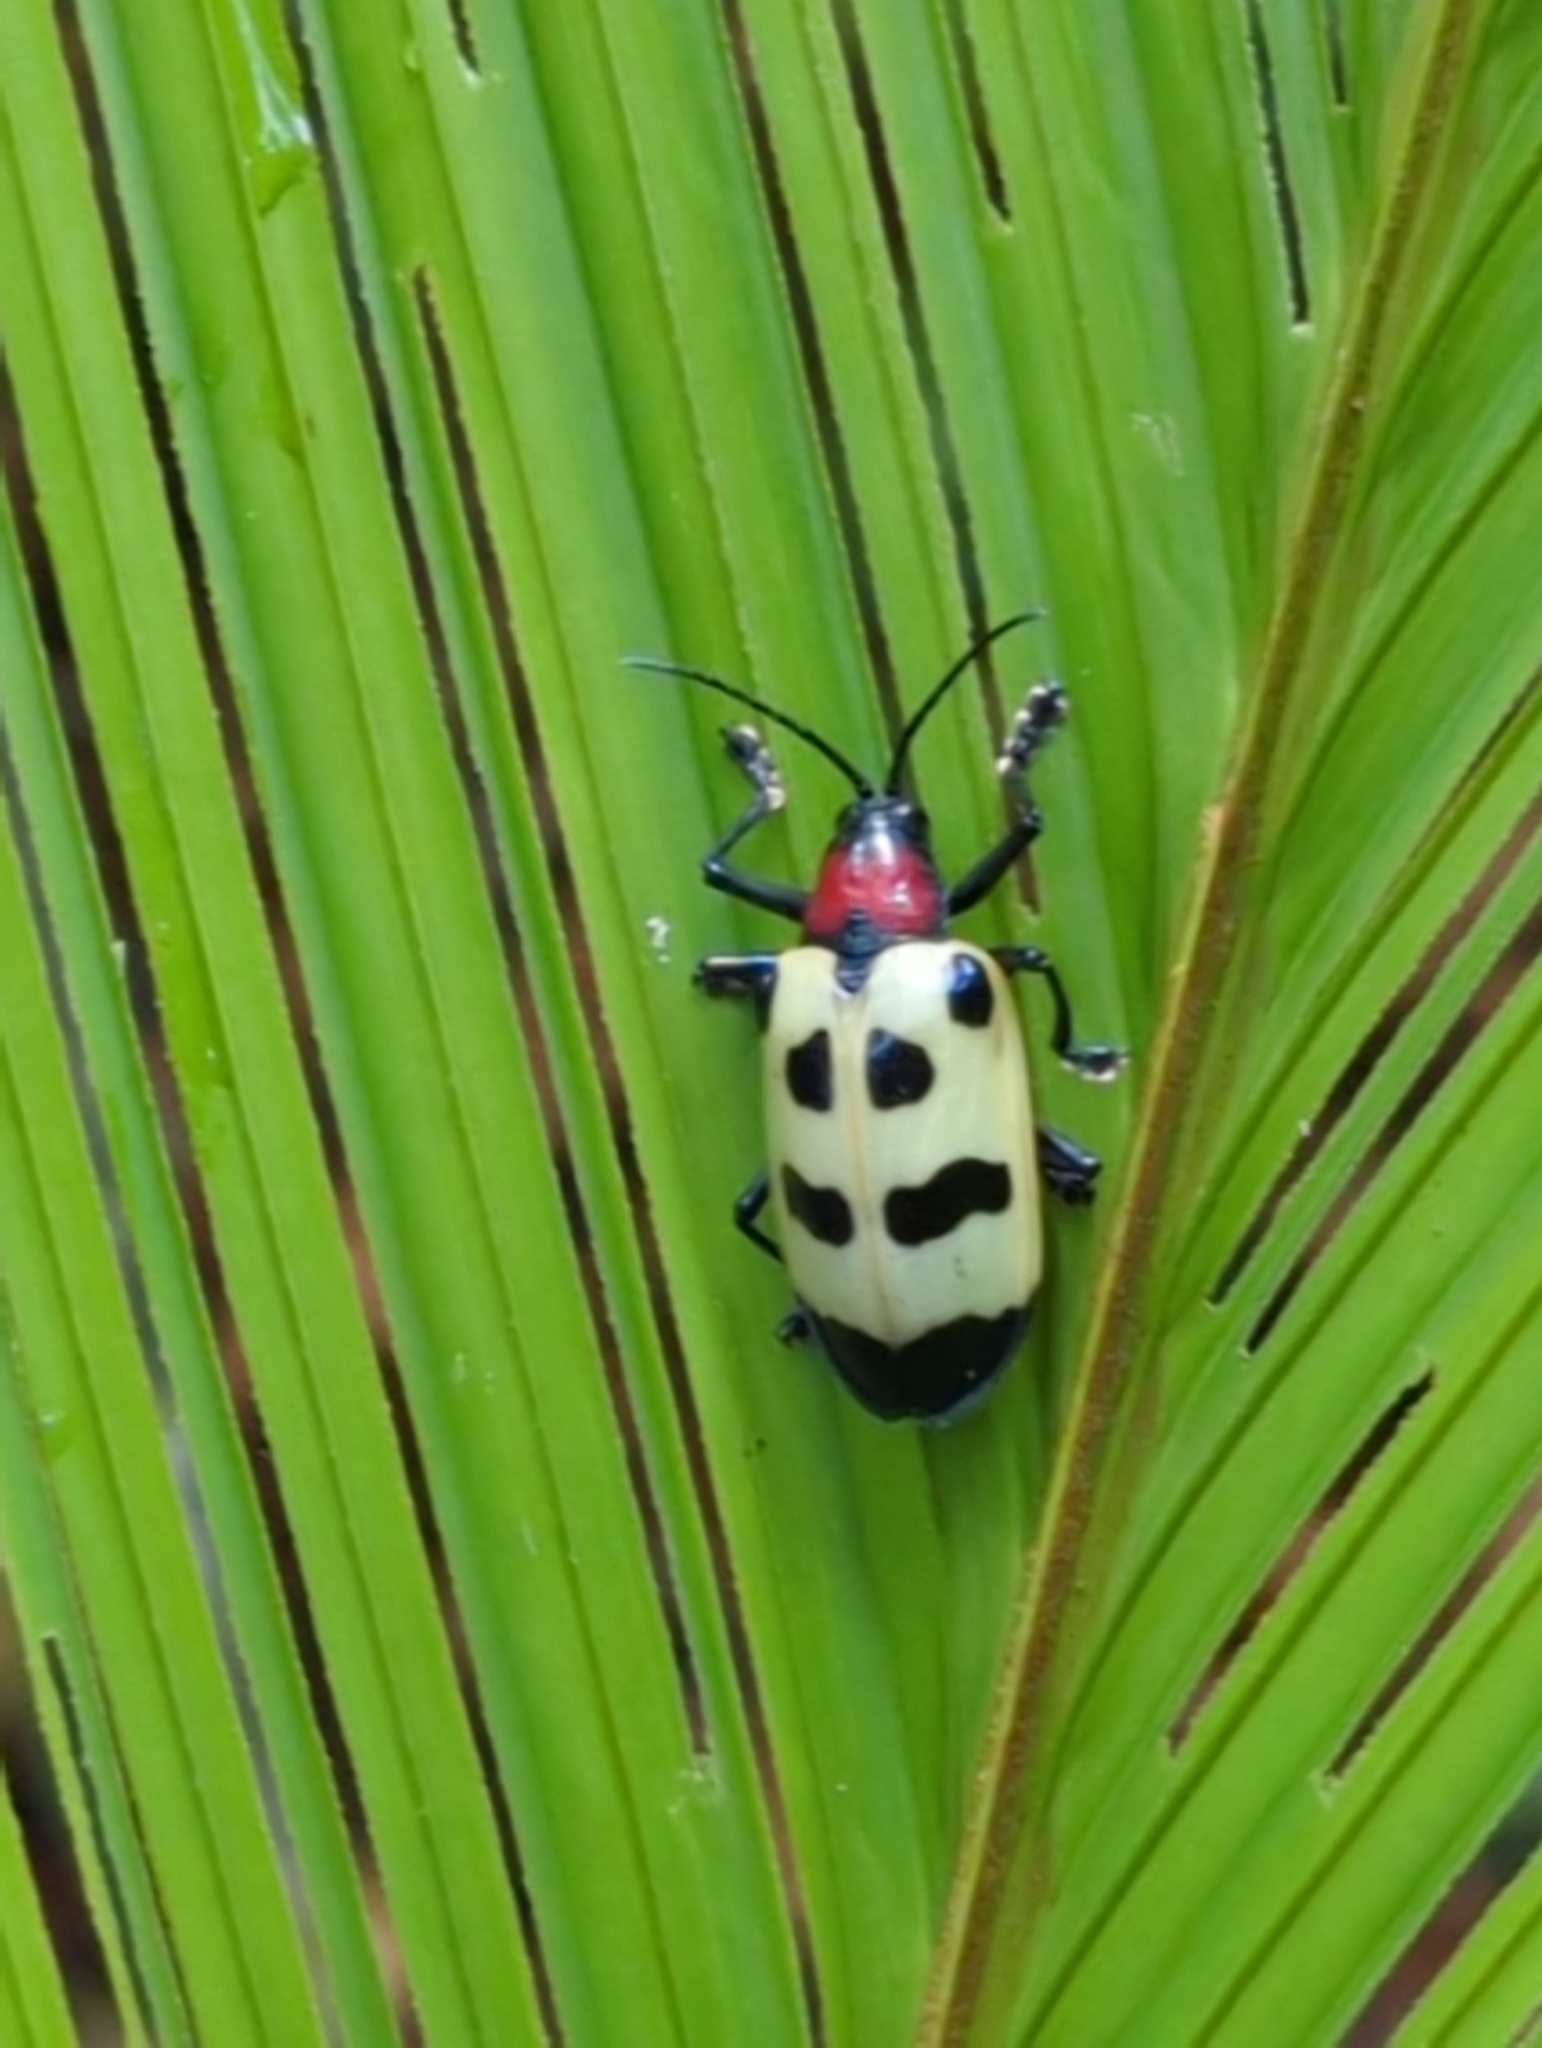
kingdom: Animalia
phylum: Arthropoda
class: Insecta
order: Coleoptera
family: Chrysomelidae
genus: Alurnus
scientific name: Alurnus ornatus
